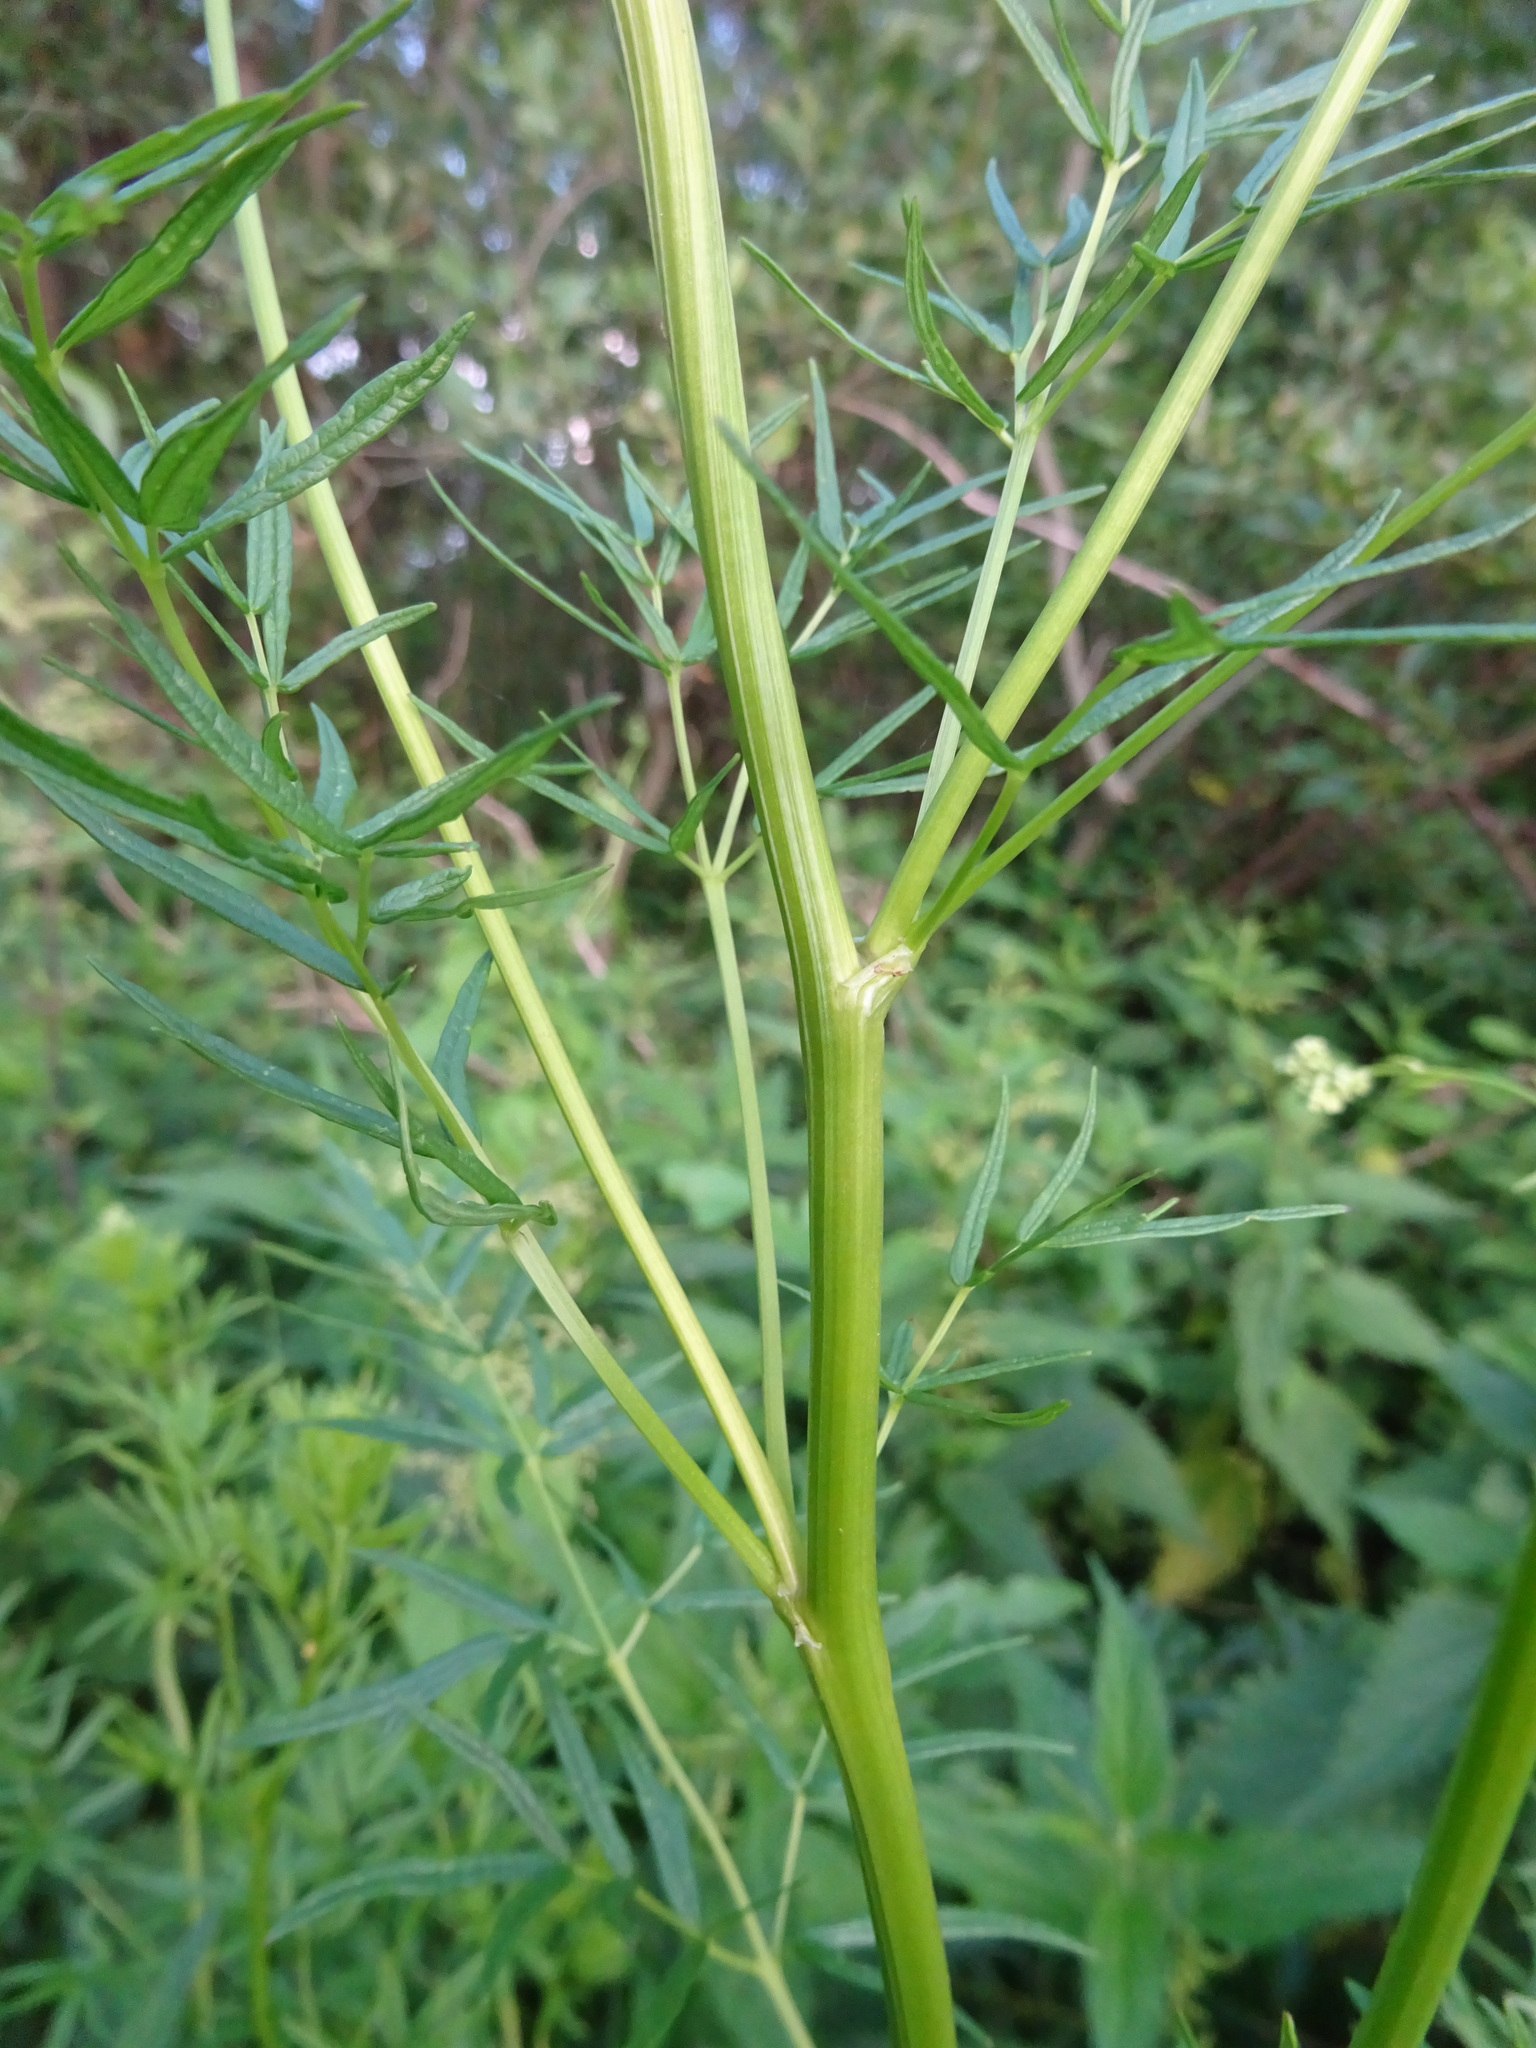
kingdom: Plantae
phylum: Tracheophyta
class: Magnoliopsida
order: Ranunculales
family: Ranunculaceae
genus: Thalictrum
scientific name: Thalictrum lucidum
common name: Shining meadow-rue
